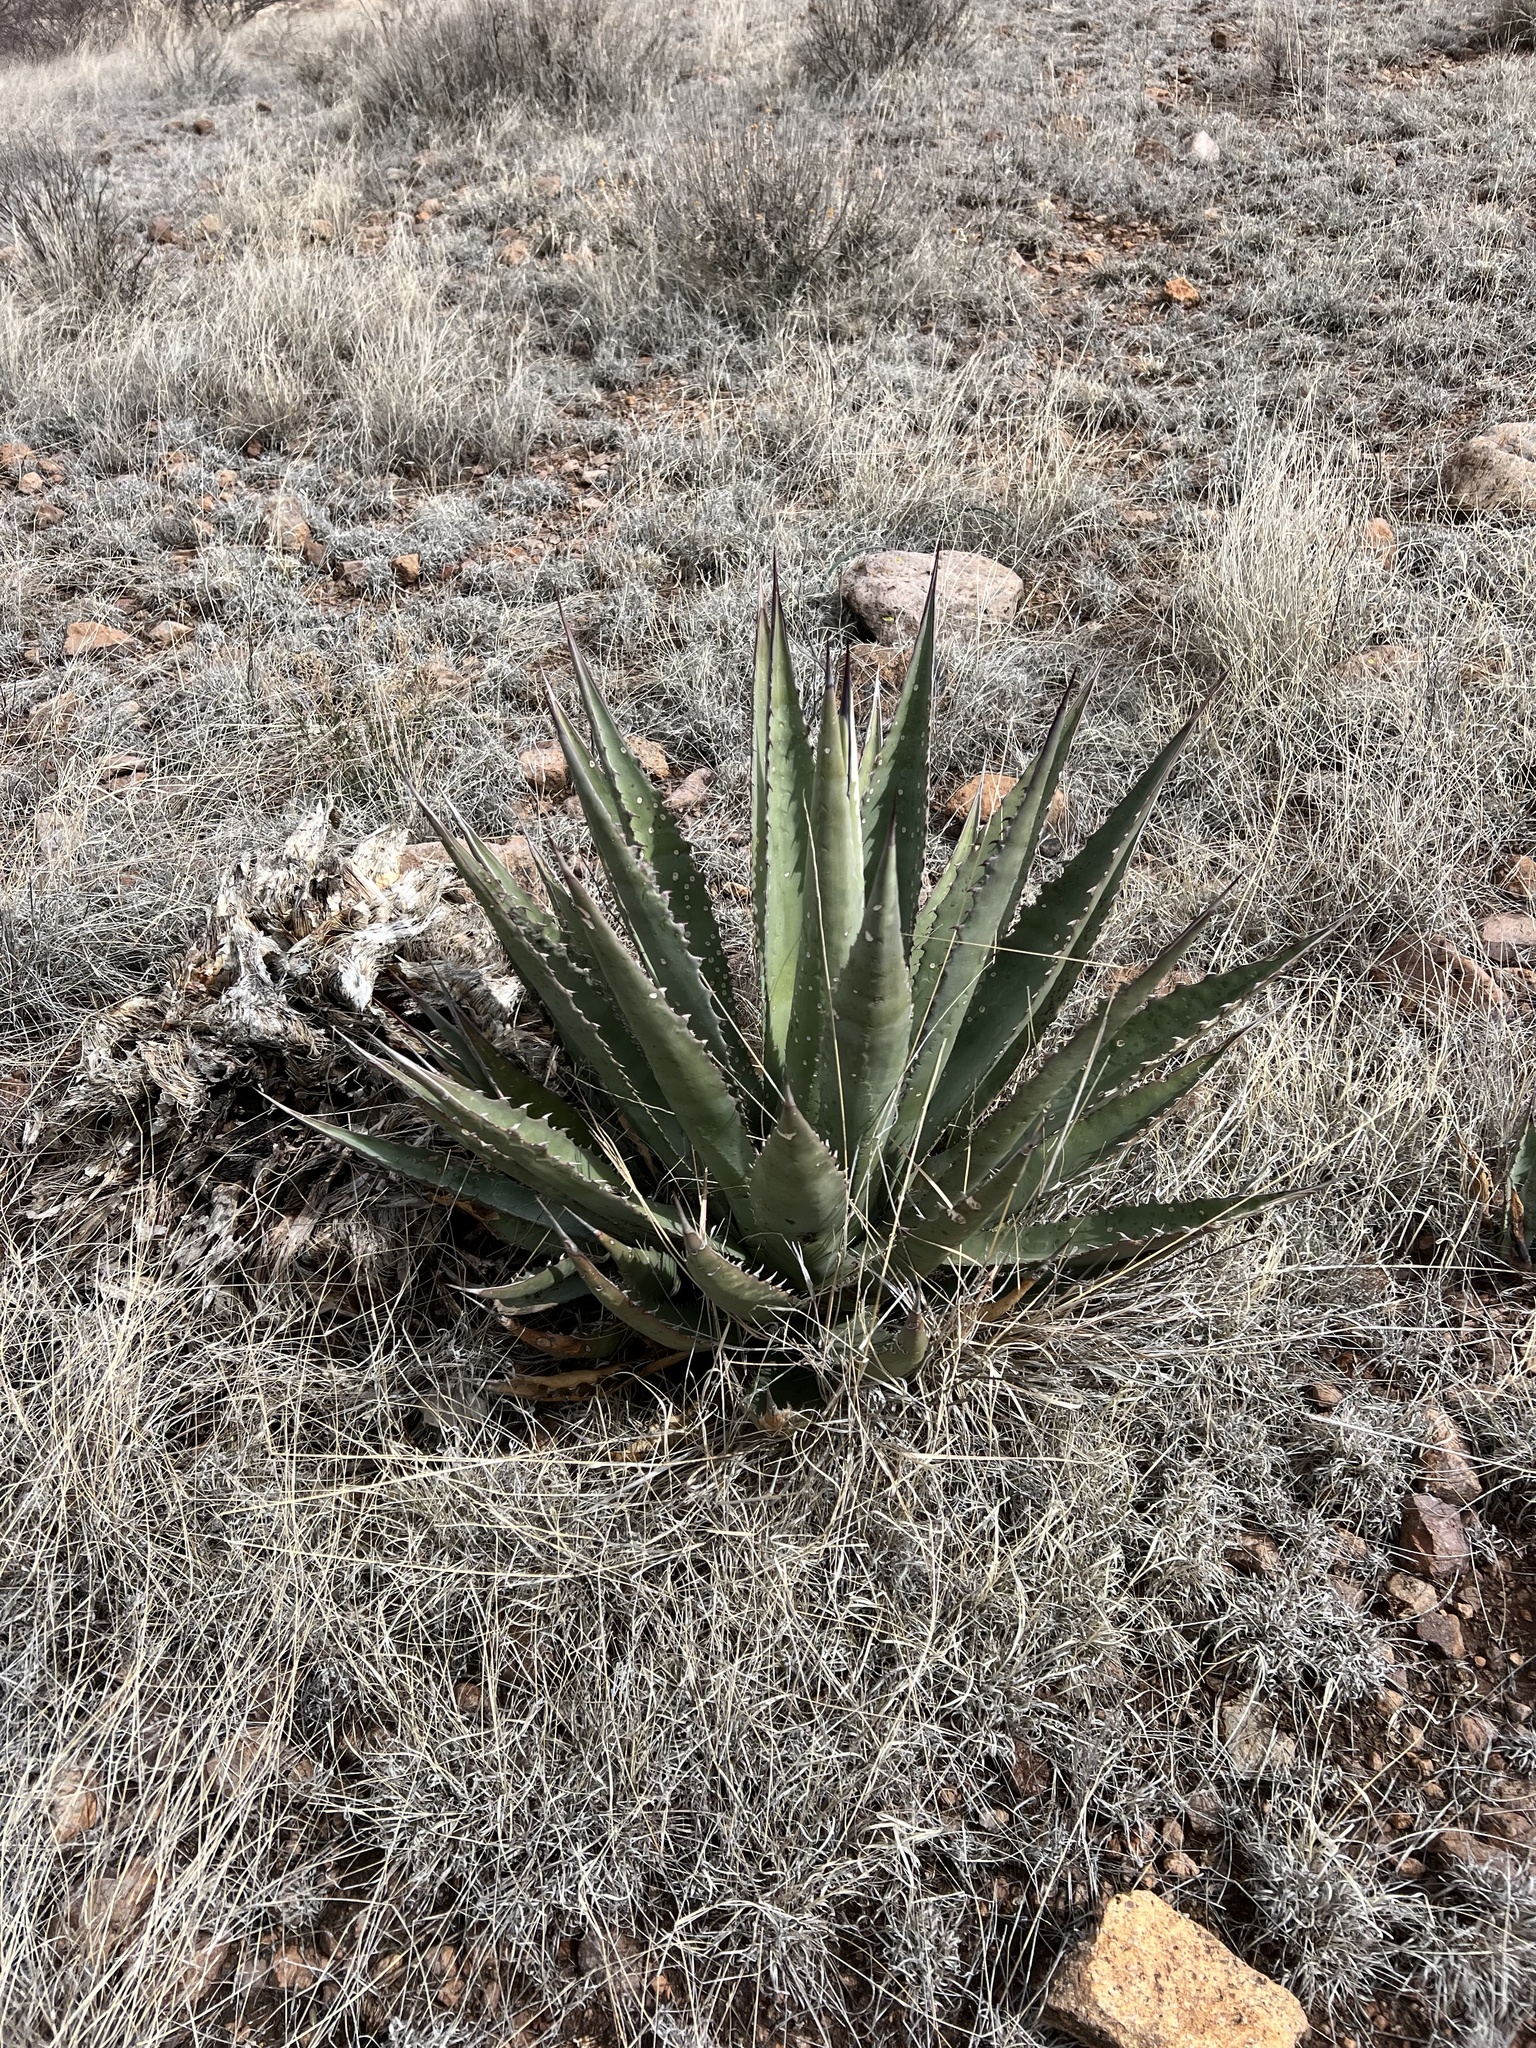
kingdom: Plantae
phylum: Tracheophyta
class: Liliopsida
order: Asparagales
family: Asparagaceae
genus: Agave
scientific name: Agave palmeri
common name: Palmer agave
